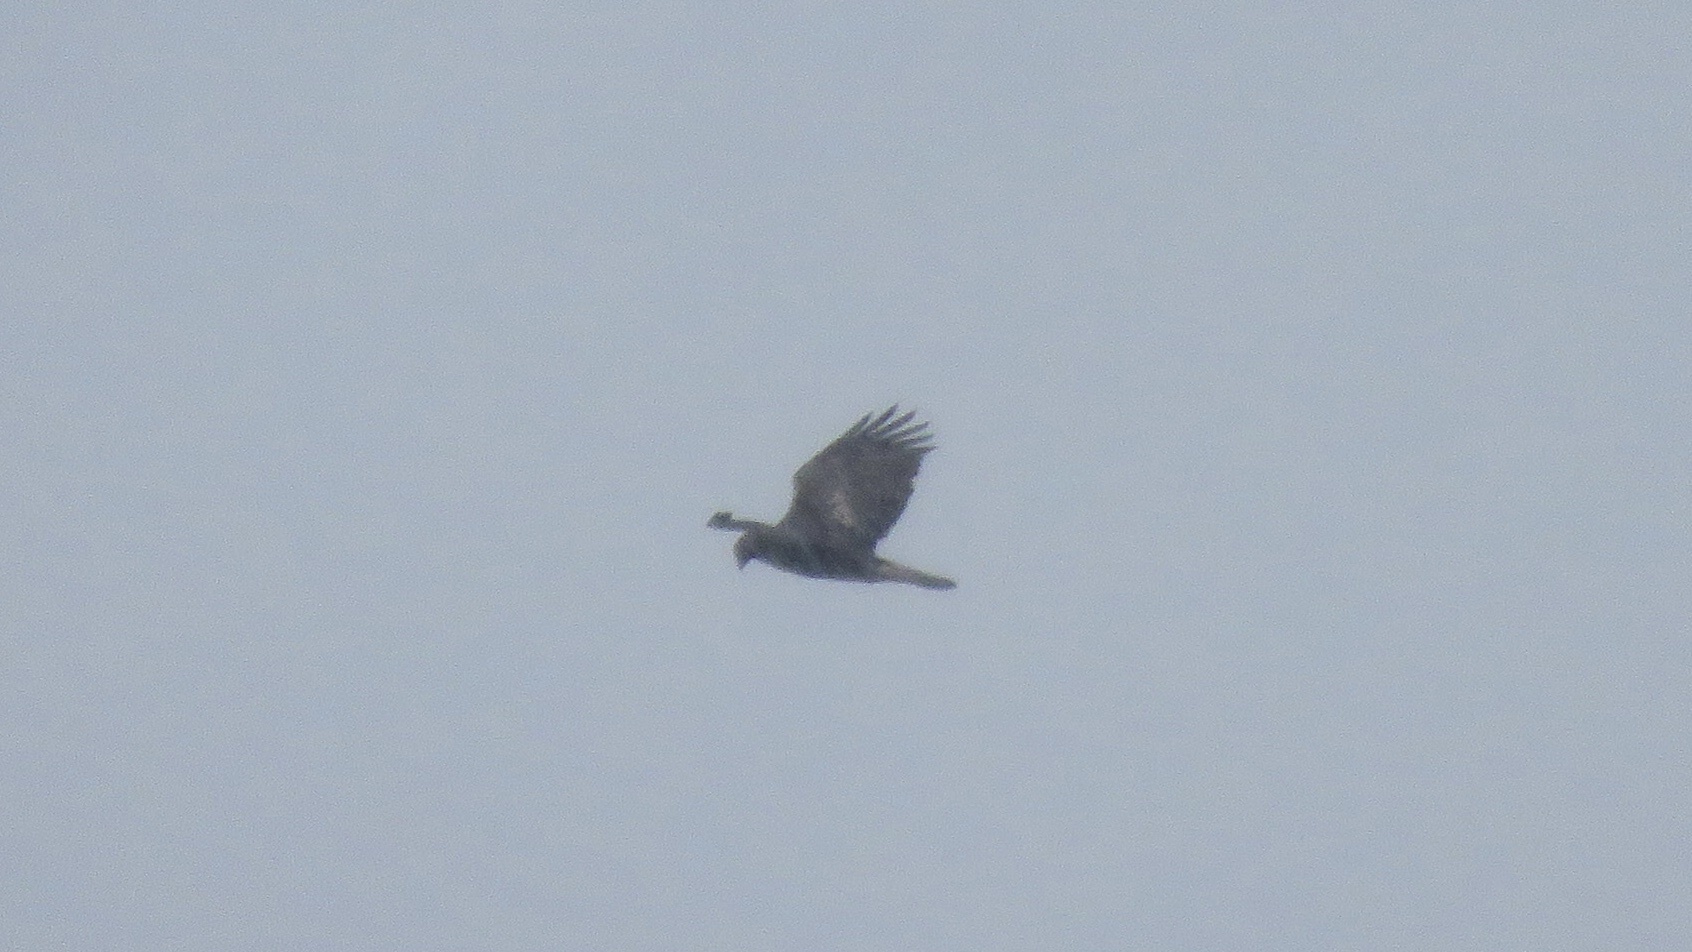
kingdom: Animalia
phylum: Chordata
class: Aves
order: Accipitriformes
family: Accipitridae
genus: Aquila
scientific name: Aquila chrysaetos
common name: Golden eagle
